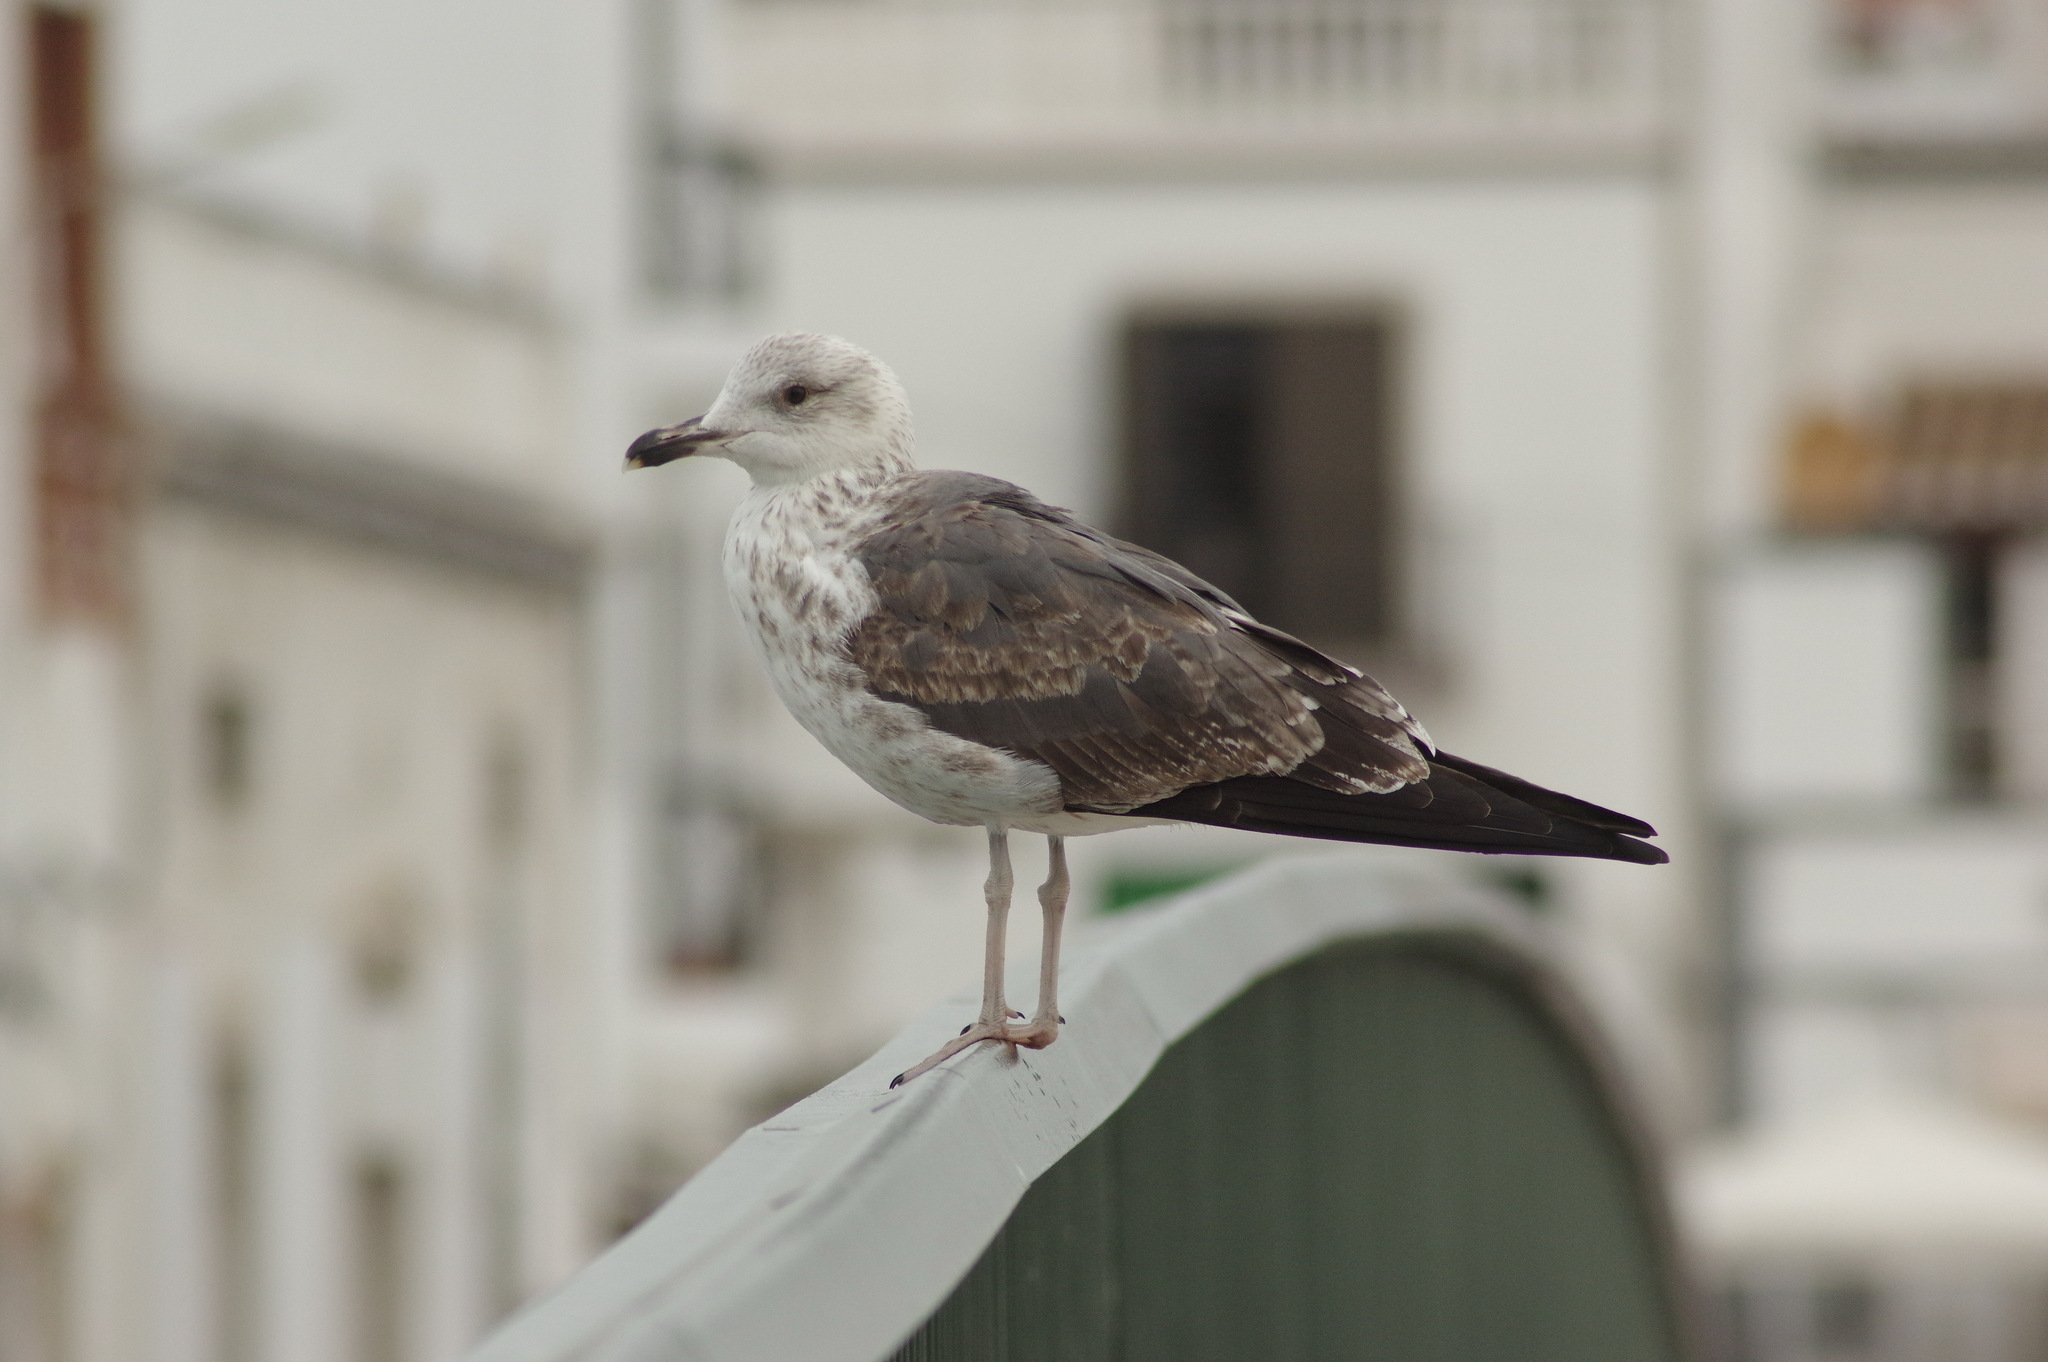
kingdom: Animalia
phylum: Chordata
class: Aves
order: Charadriiformes
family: Laridae
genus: Larus
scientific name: Larus fuscus
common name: Lesser black-backed gull
